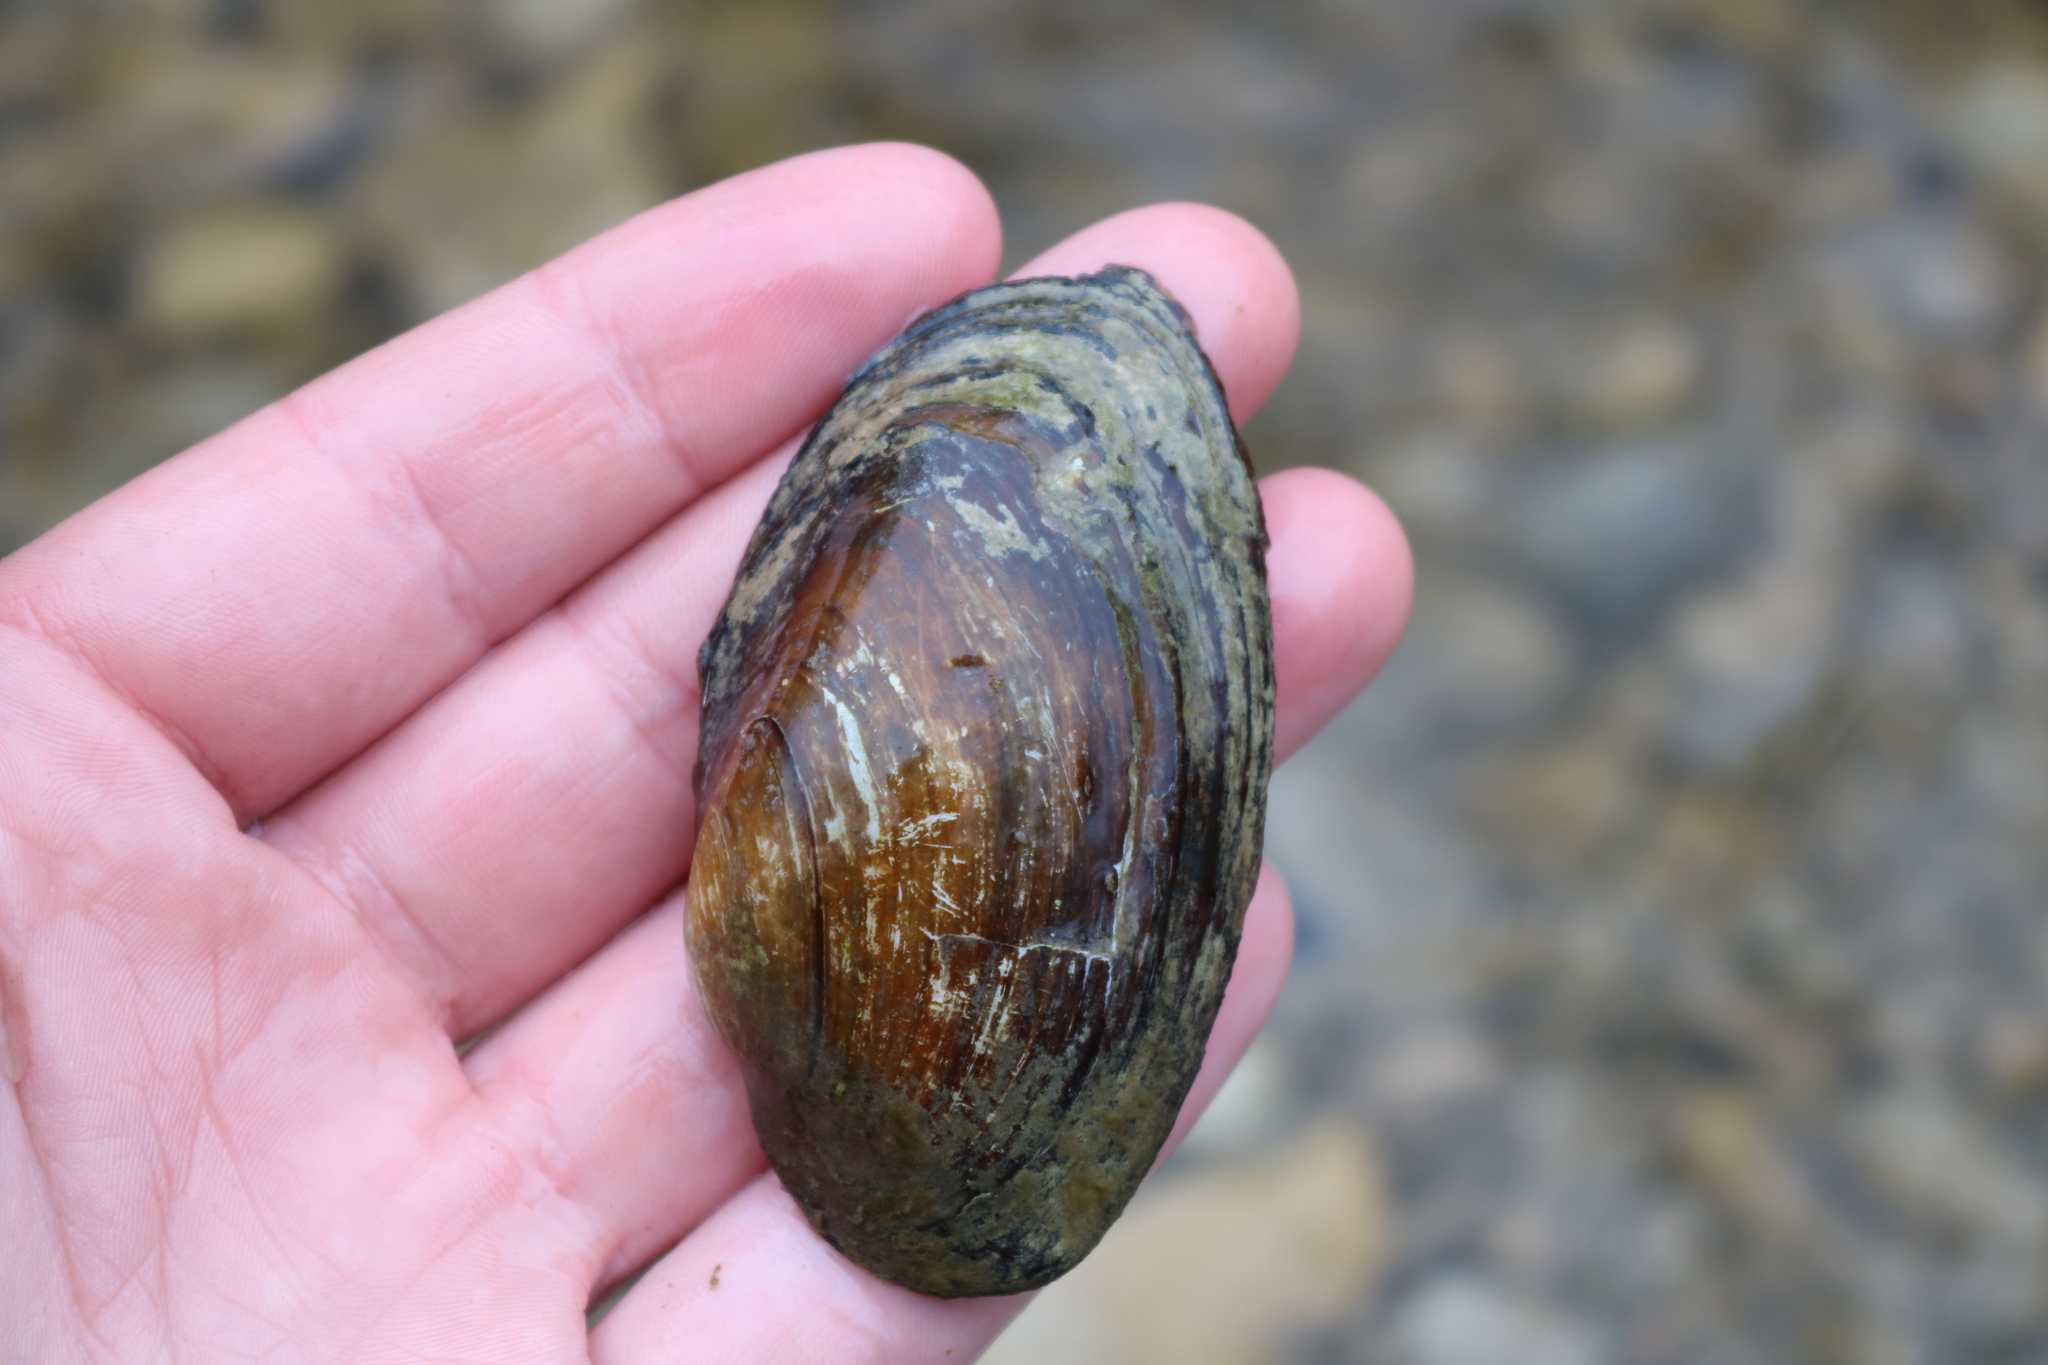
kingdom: Animalia
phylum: Mollusca
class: Bivalvia
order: Unionida
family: Unionidae
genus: Pyganodon
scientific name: Pyganodon grandis
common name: Giant floater
